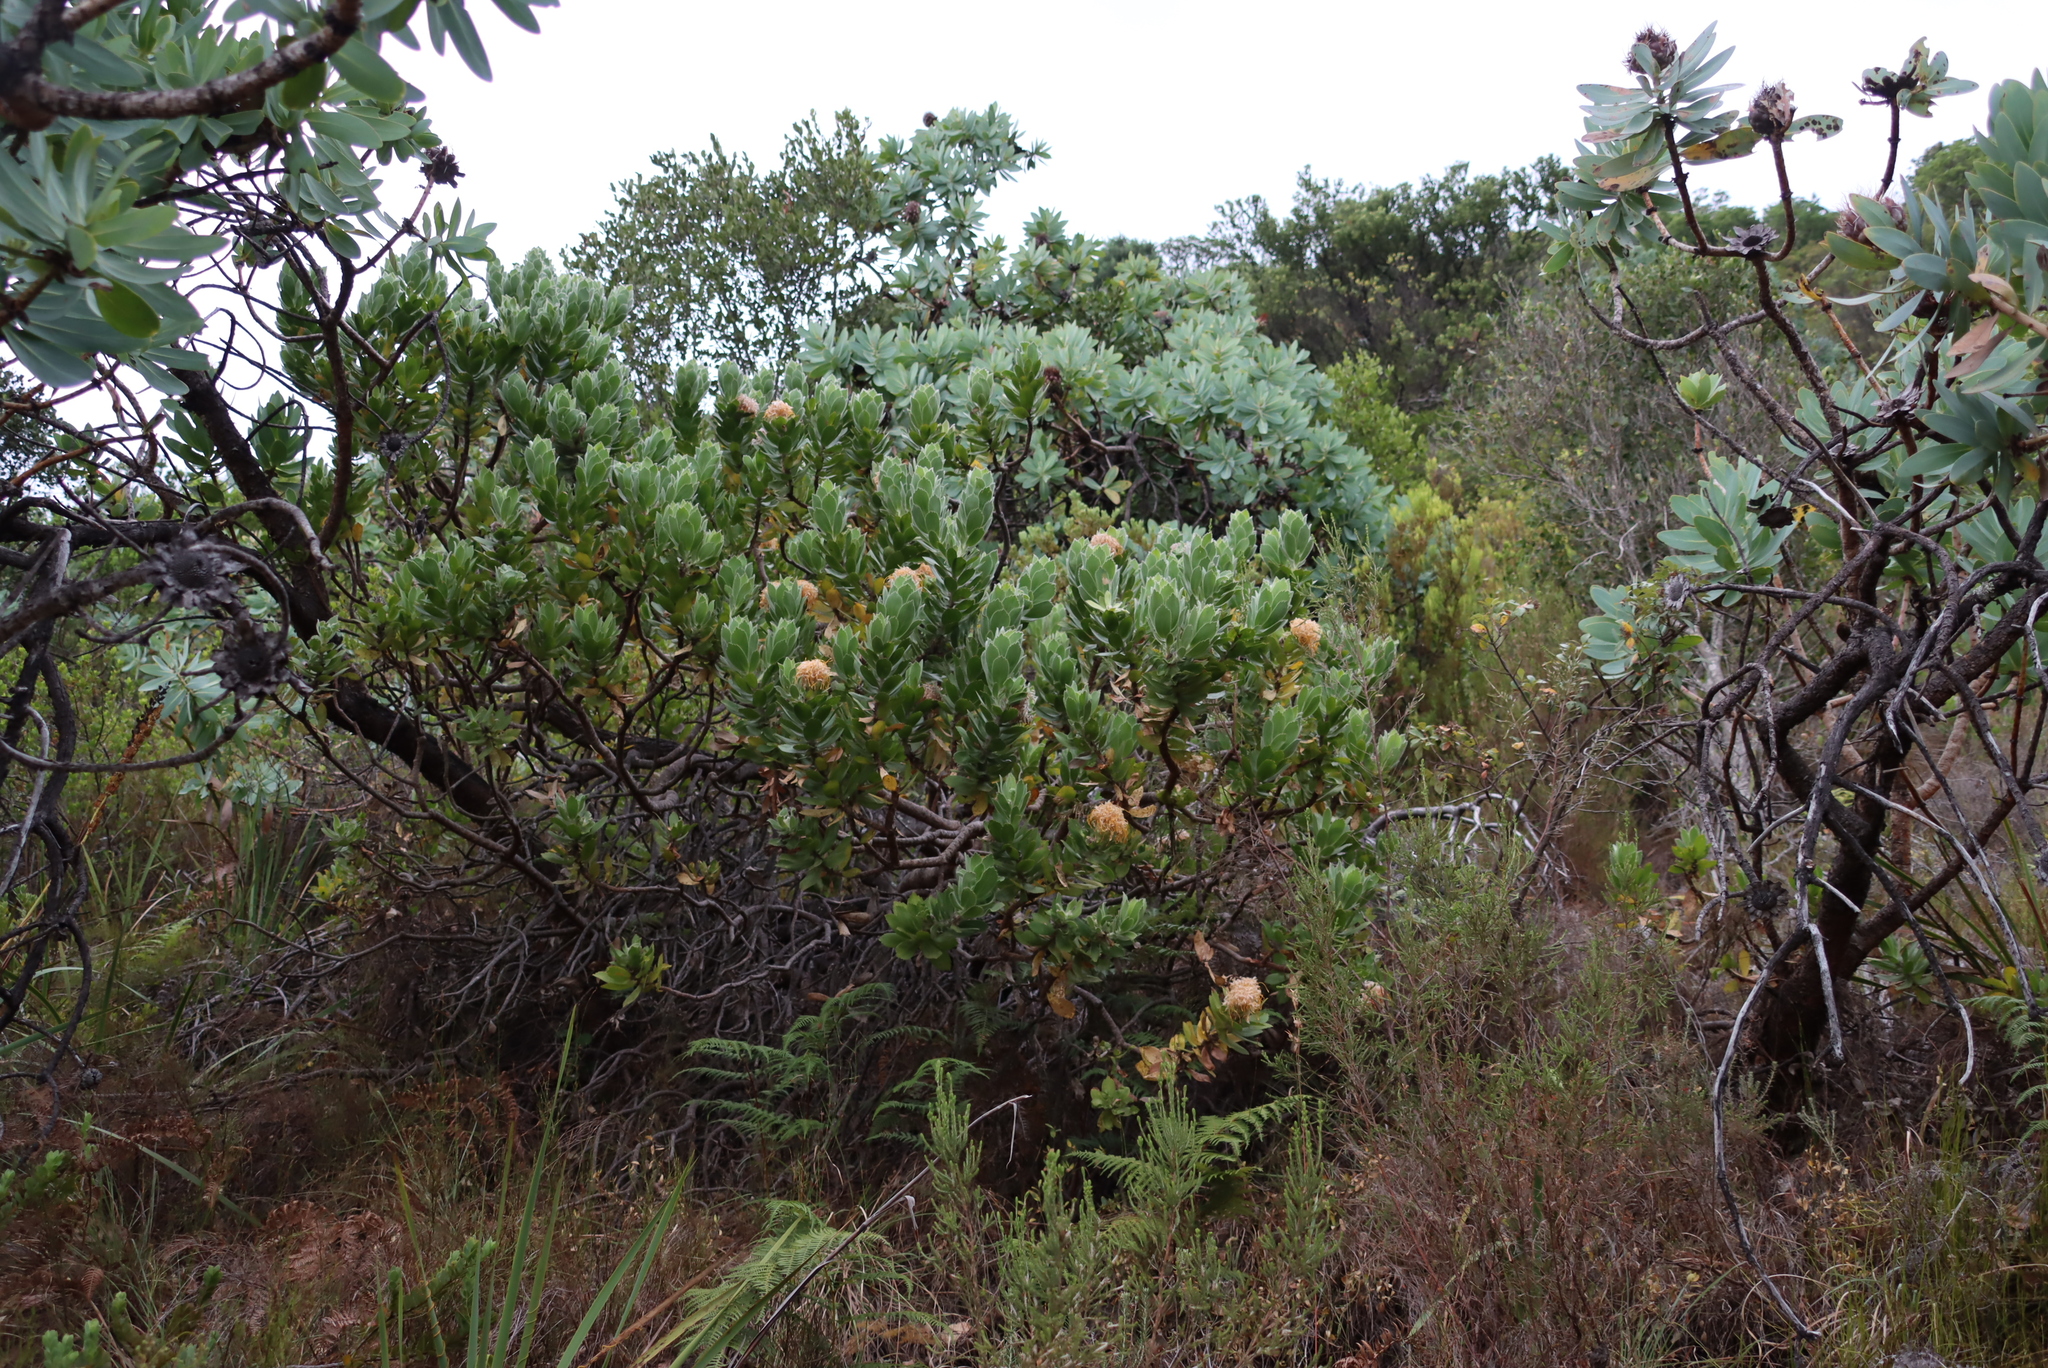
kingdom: Plantae
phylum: Tracheophyta
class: Magnoliopsida
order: Proteales
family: Proteaceae
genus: Leucospermum
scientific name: Leucospermum conocarpodendron
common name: Tree pincushion
